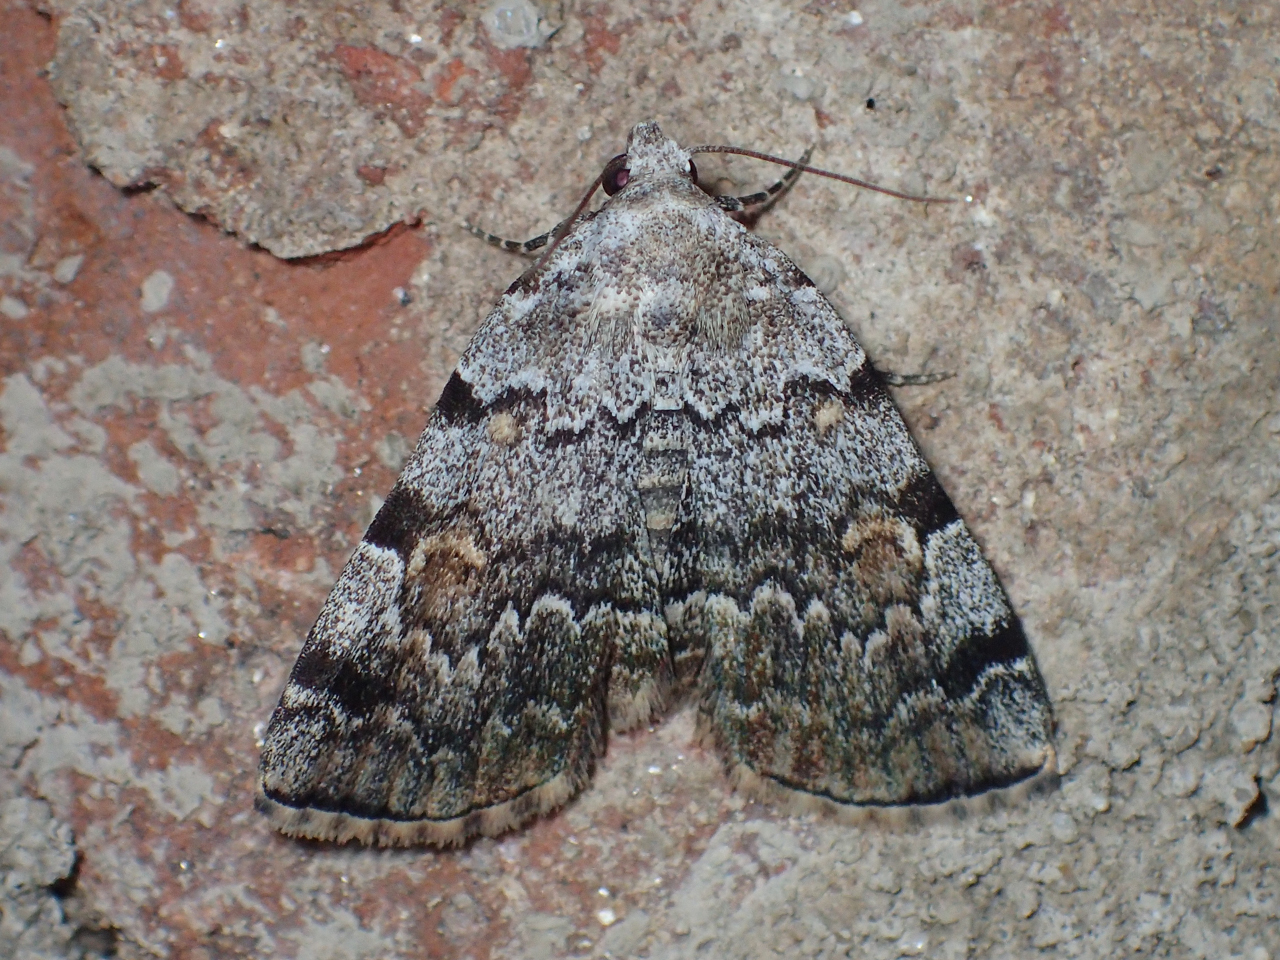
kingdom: Animalia
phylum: Arthropoda
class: Insecta
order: Lepidoptera
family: Erebidae
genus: Idia
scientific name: Idia americalis
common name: American idia moth
